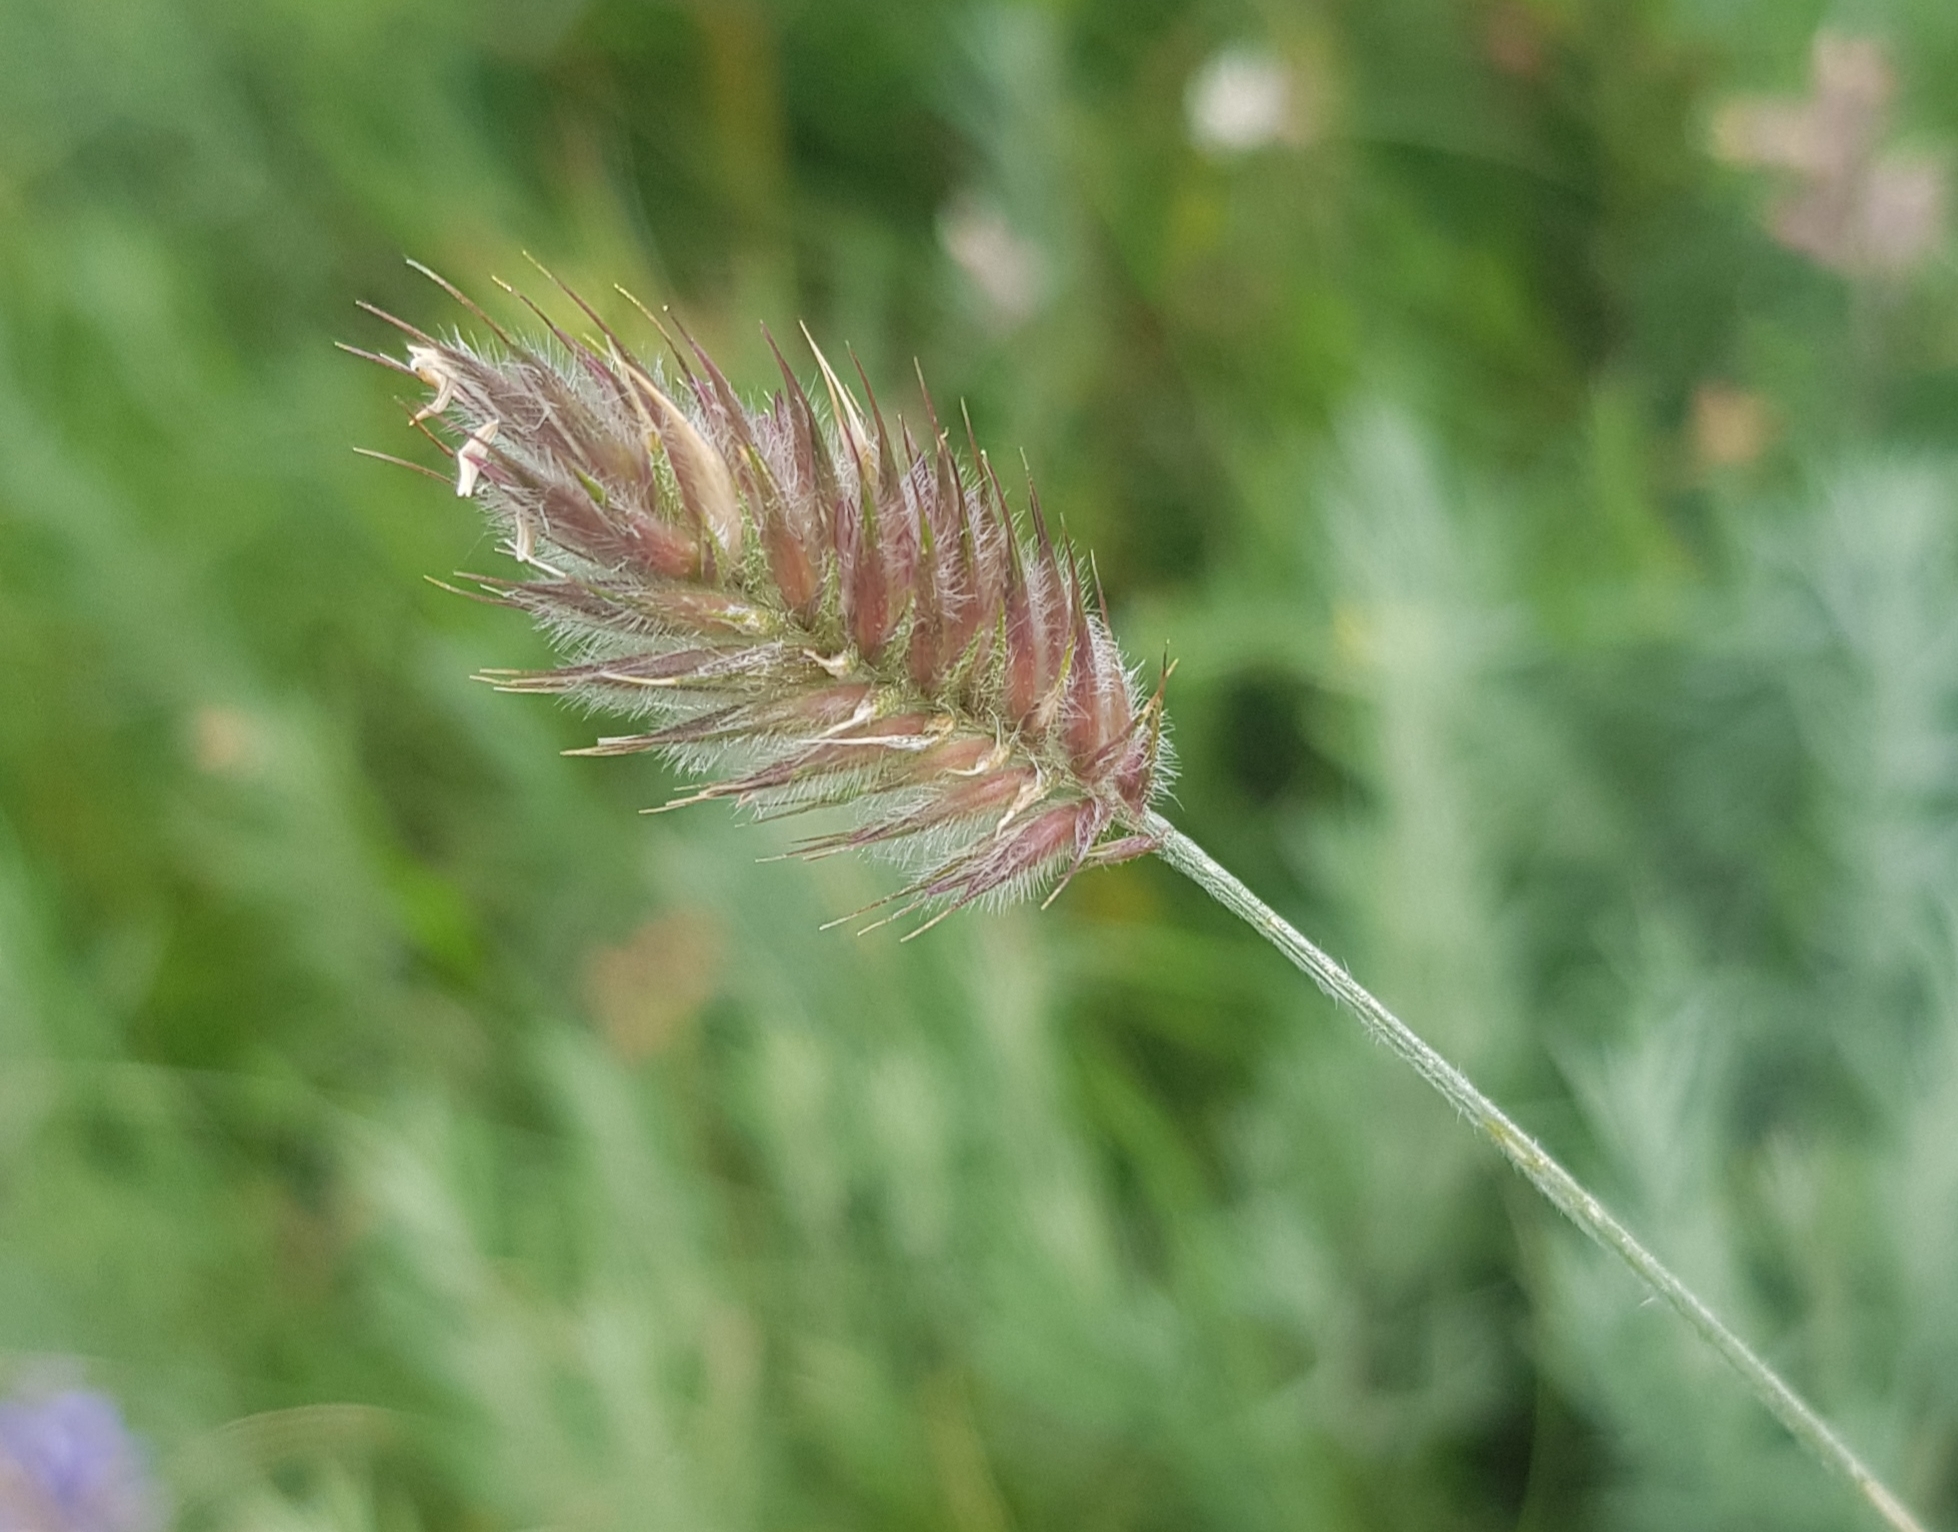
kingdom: Plantae
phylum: Tracheophyta
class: Liliopsida
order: Poales
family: Poaceae
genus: Agropyron
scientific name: Agropyron cristatum
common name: Crested wheatgrass
